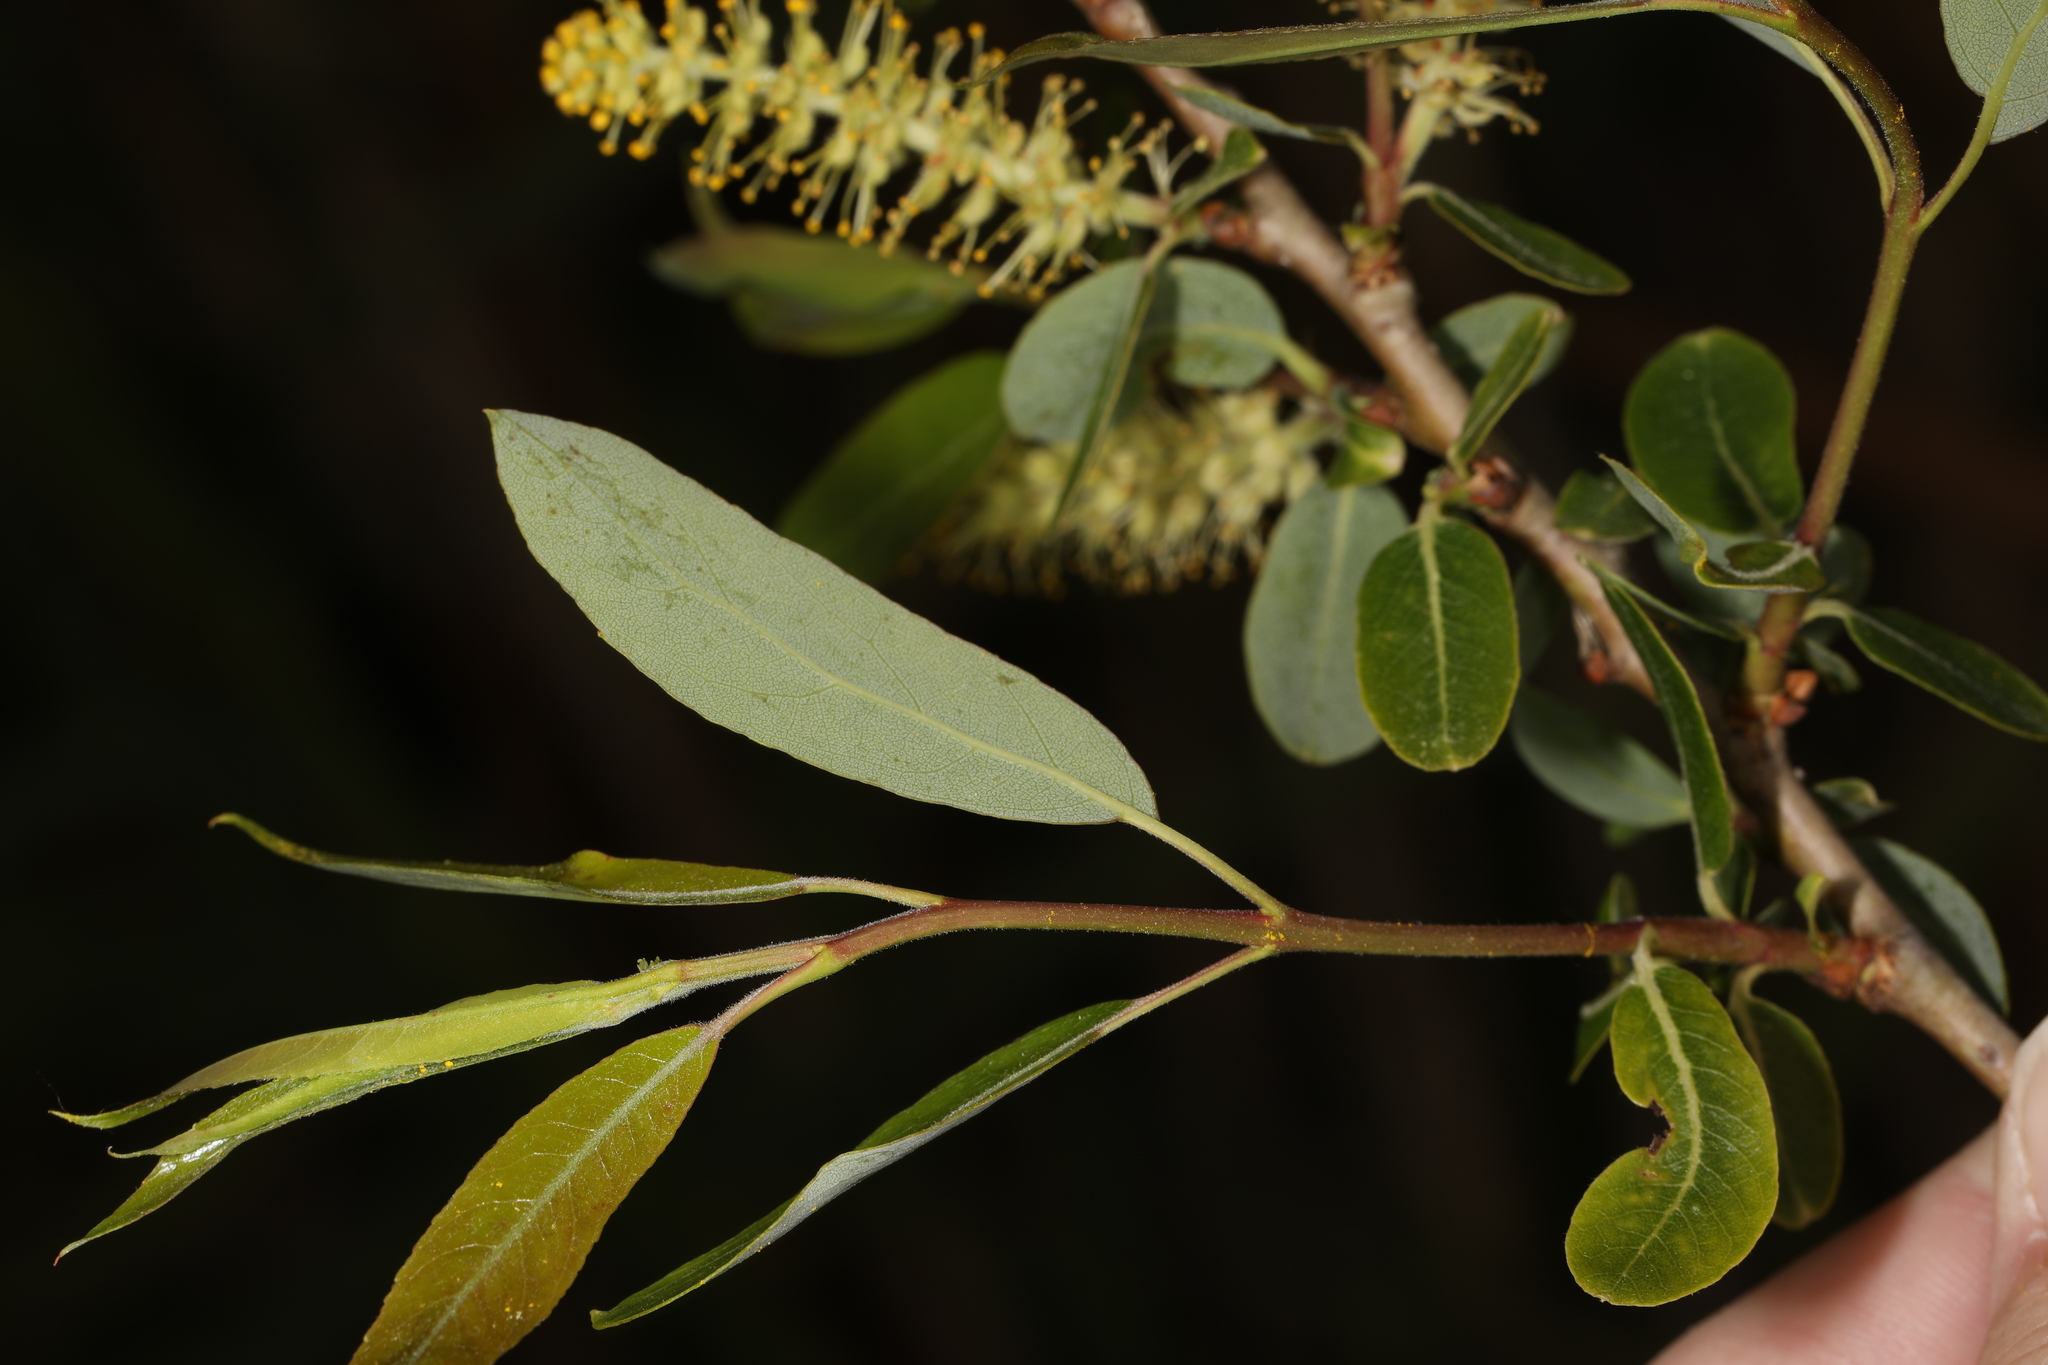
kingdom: Plantae
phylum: Tracheophyta
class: Magnoliopsida
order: Malpighiales
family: Salicaceae
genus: Salix
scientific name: Salix caroliniana
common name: Carolina willow
